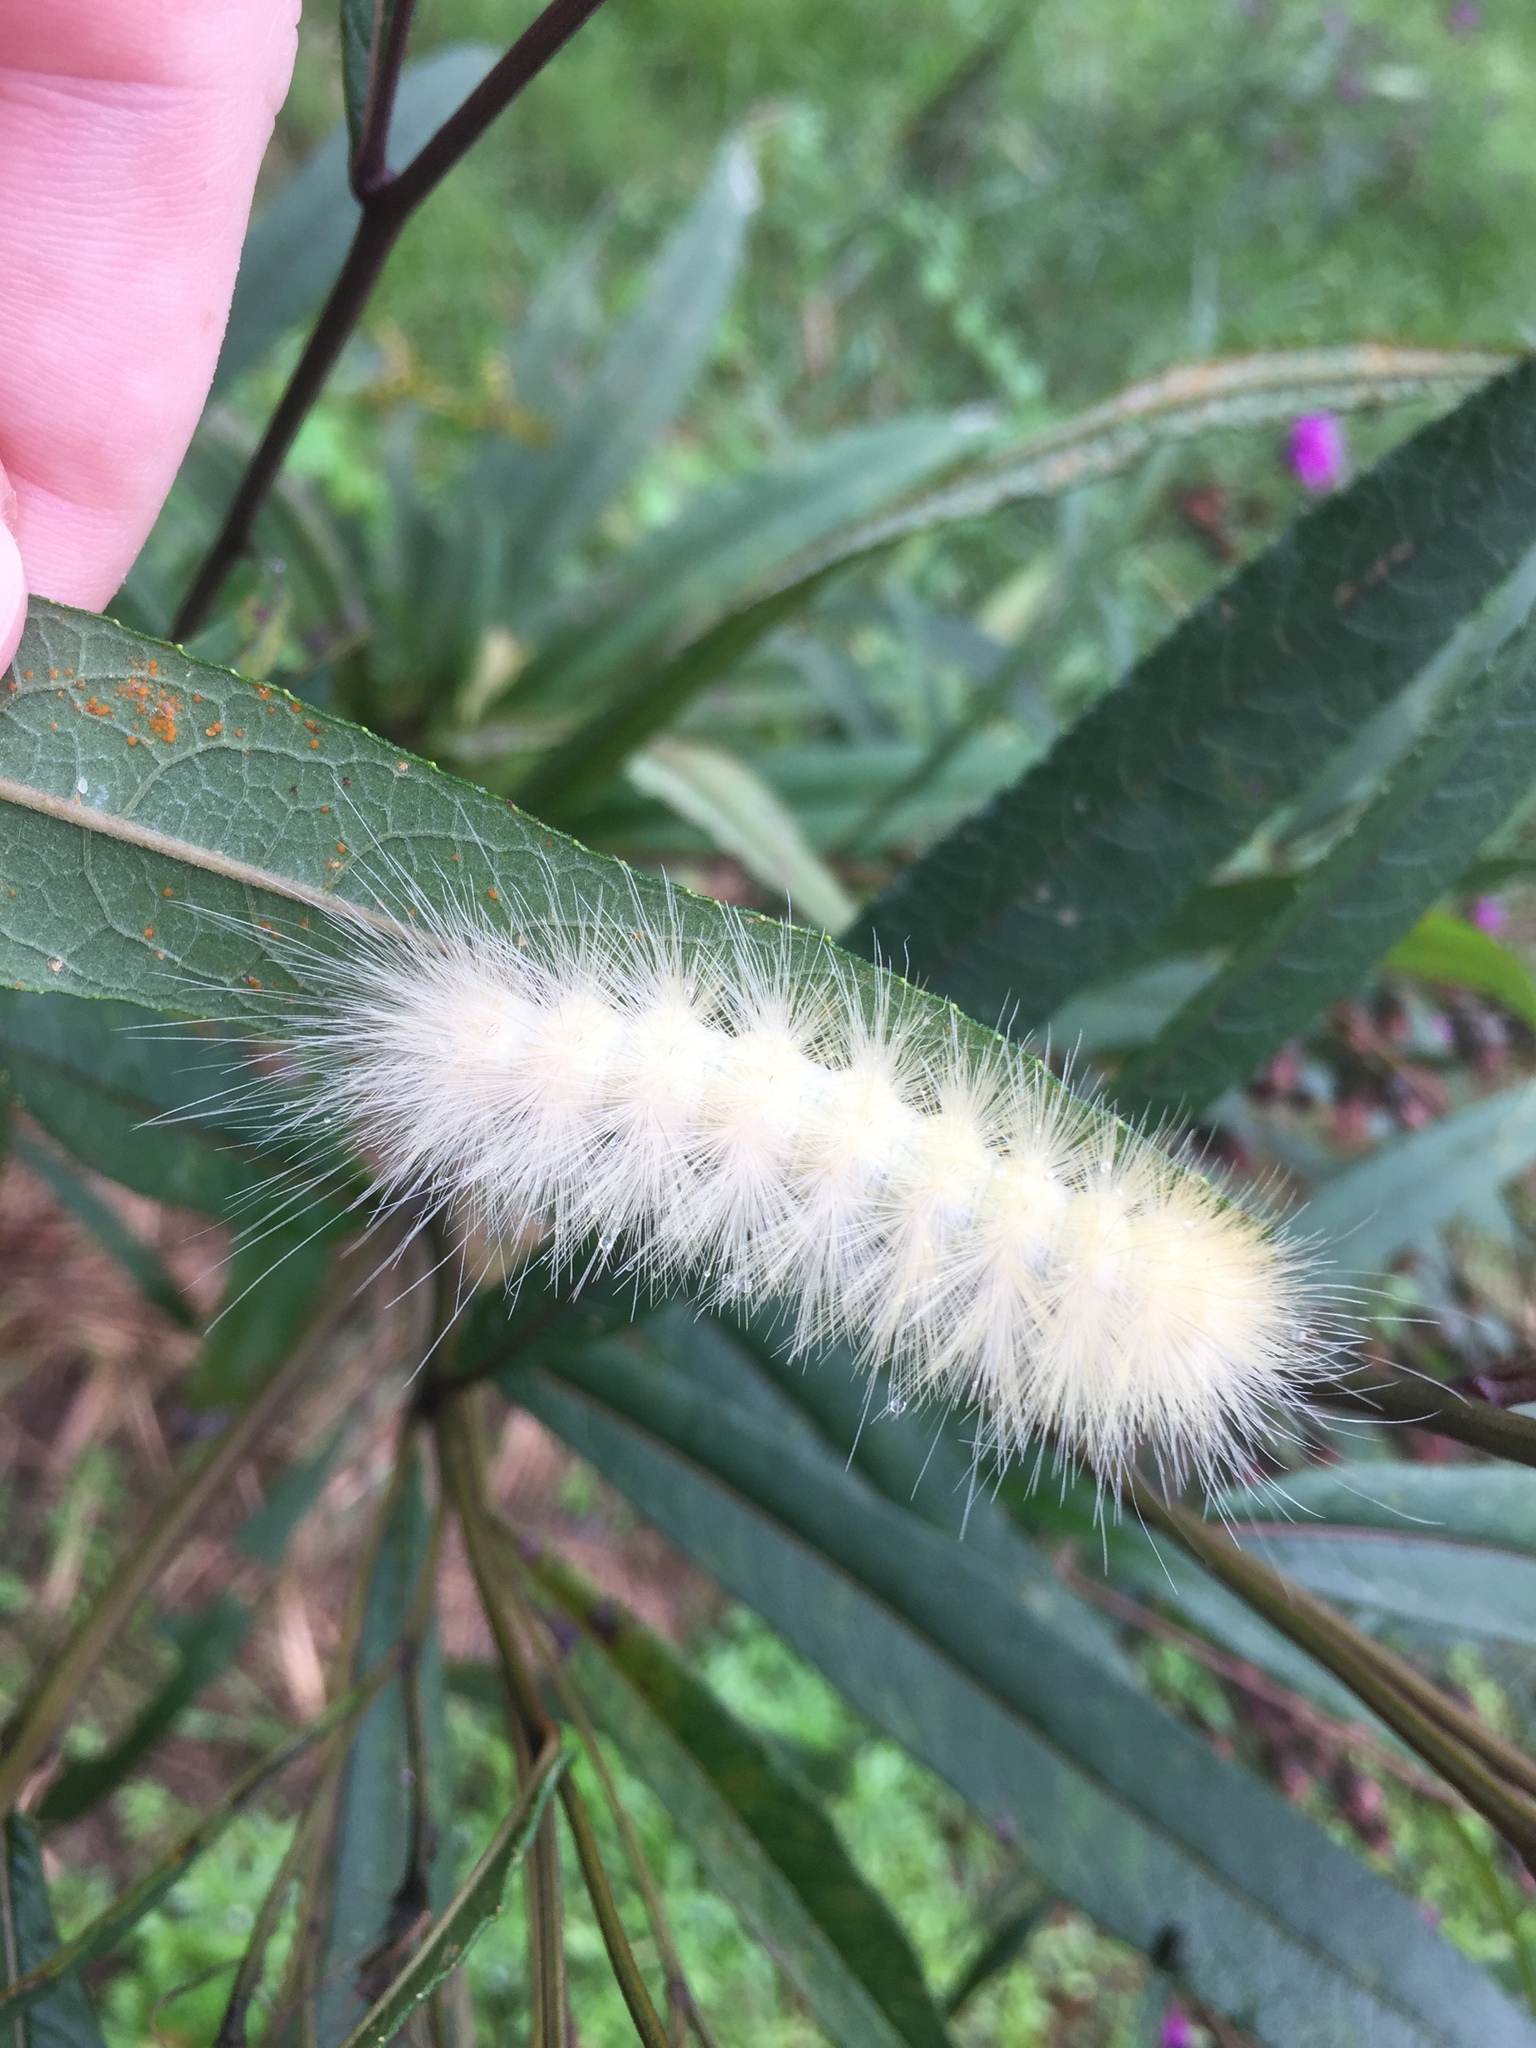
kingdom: Animalia
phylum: Arthropoda
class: Insecta
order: Lepidoptera
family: Erebidae
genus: Spilosoma
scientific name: Spilosoma virginica
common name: Virginia tiger moth
